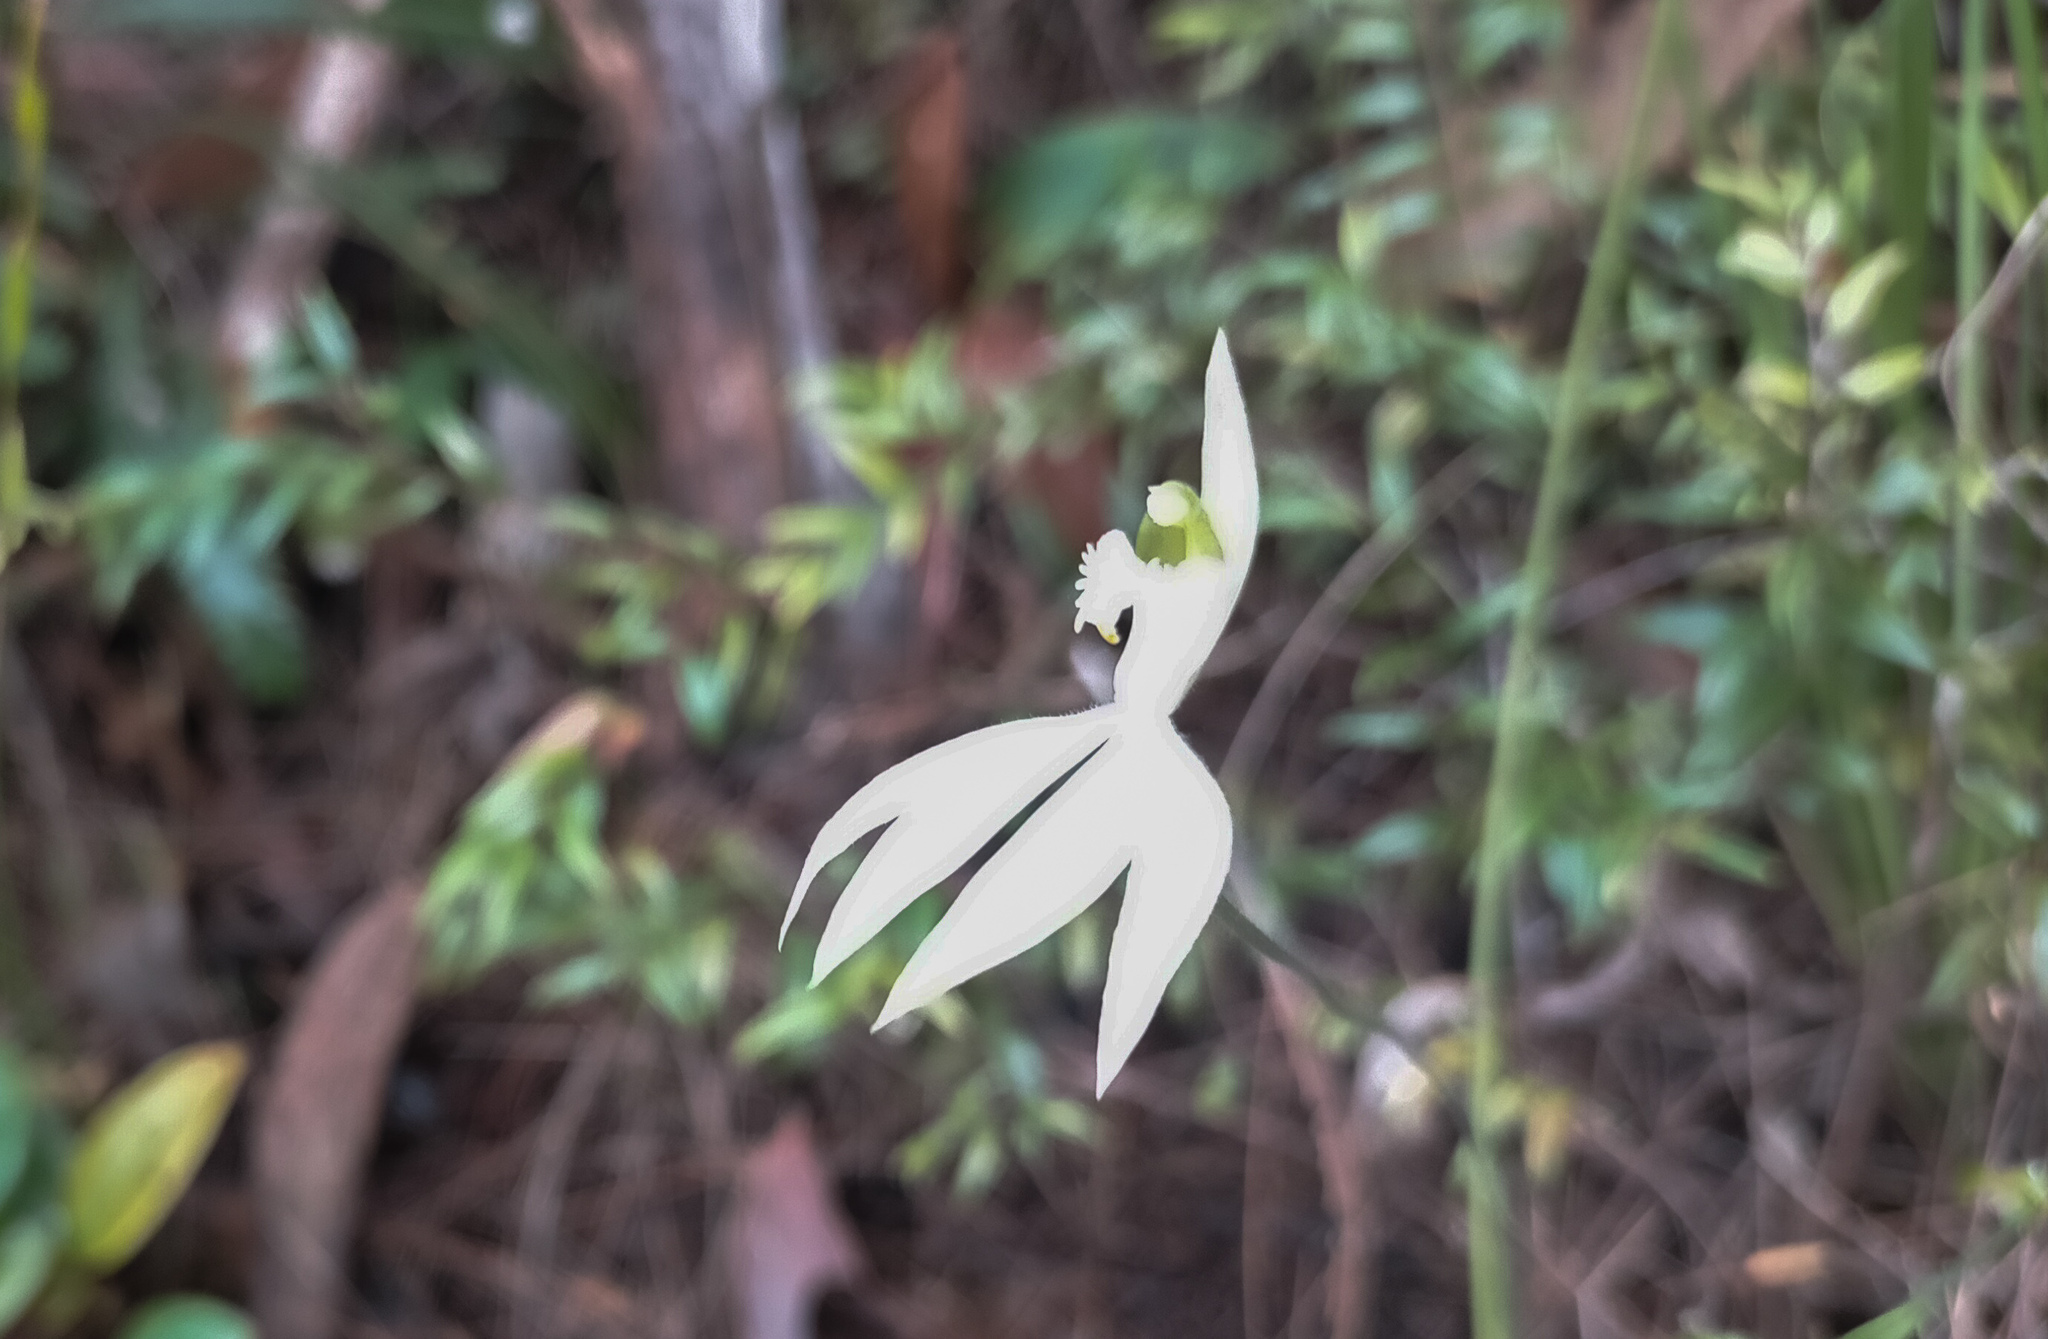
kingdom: Plantae
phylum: Tracheophyta
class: Liliopsida
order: Asparagales
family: Orchidaceae
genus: Caladenia
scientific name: Caladenia picta
